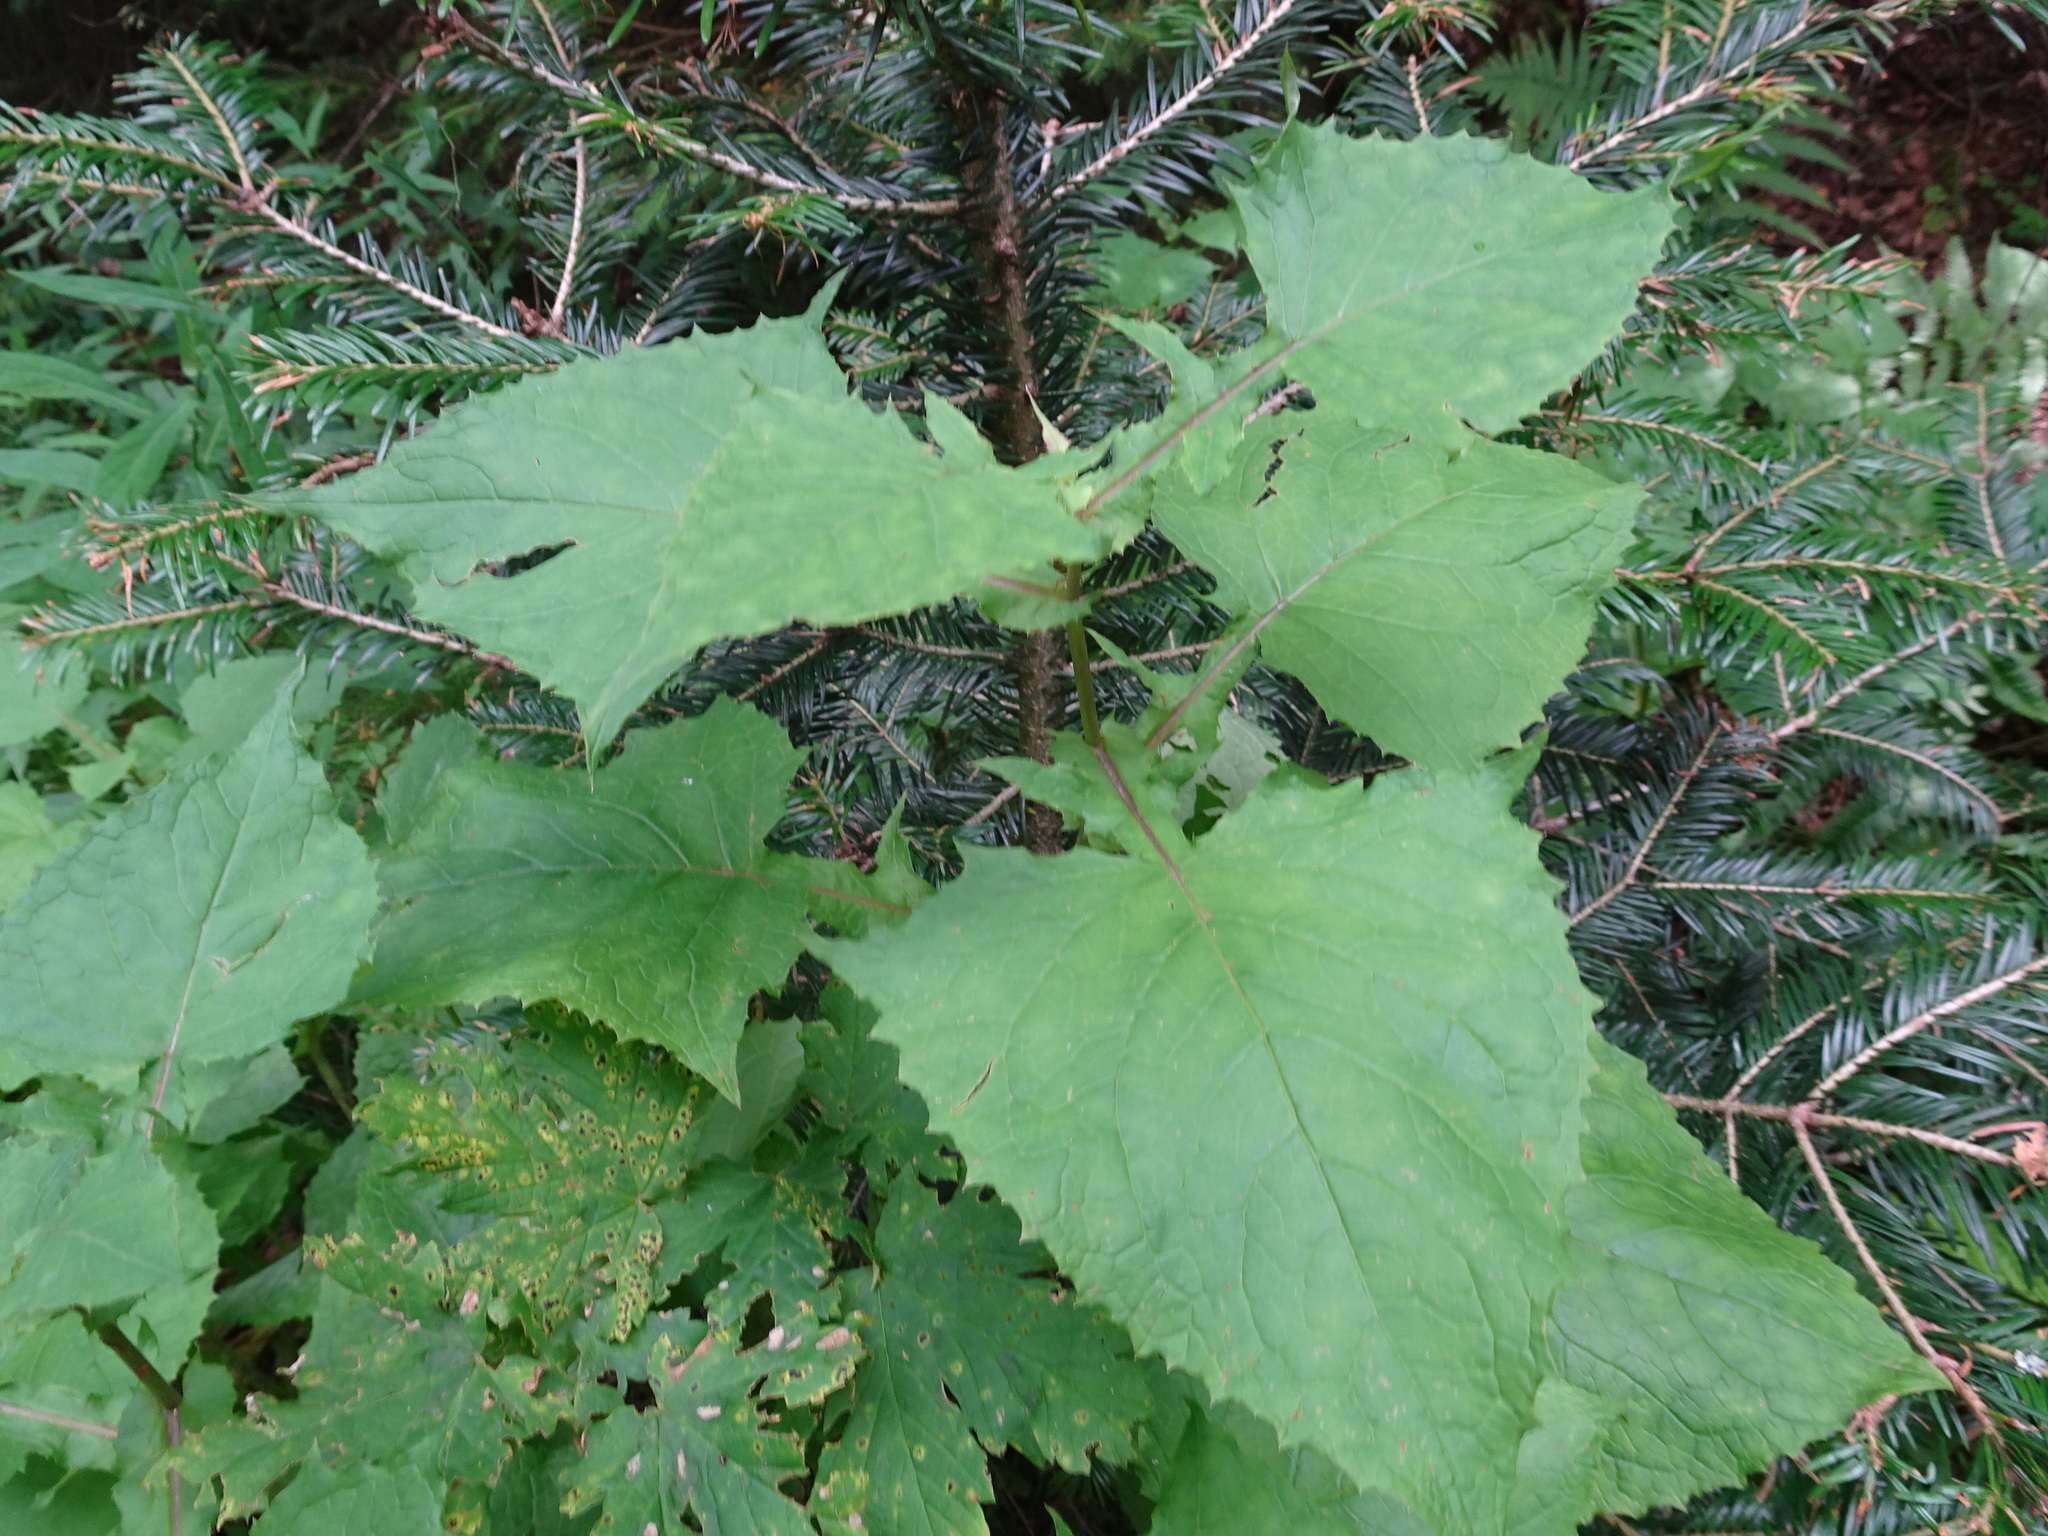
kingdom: Plantae
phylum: Tracheophyta
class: Magnoliopsida
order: Asterales
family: Asteraceae
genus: Cicerbita
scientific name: Cicerbita alpina
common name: Alpine blue-sow-thistle
